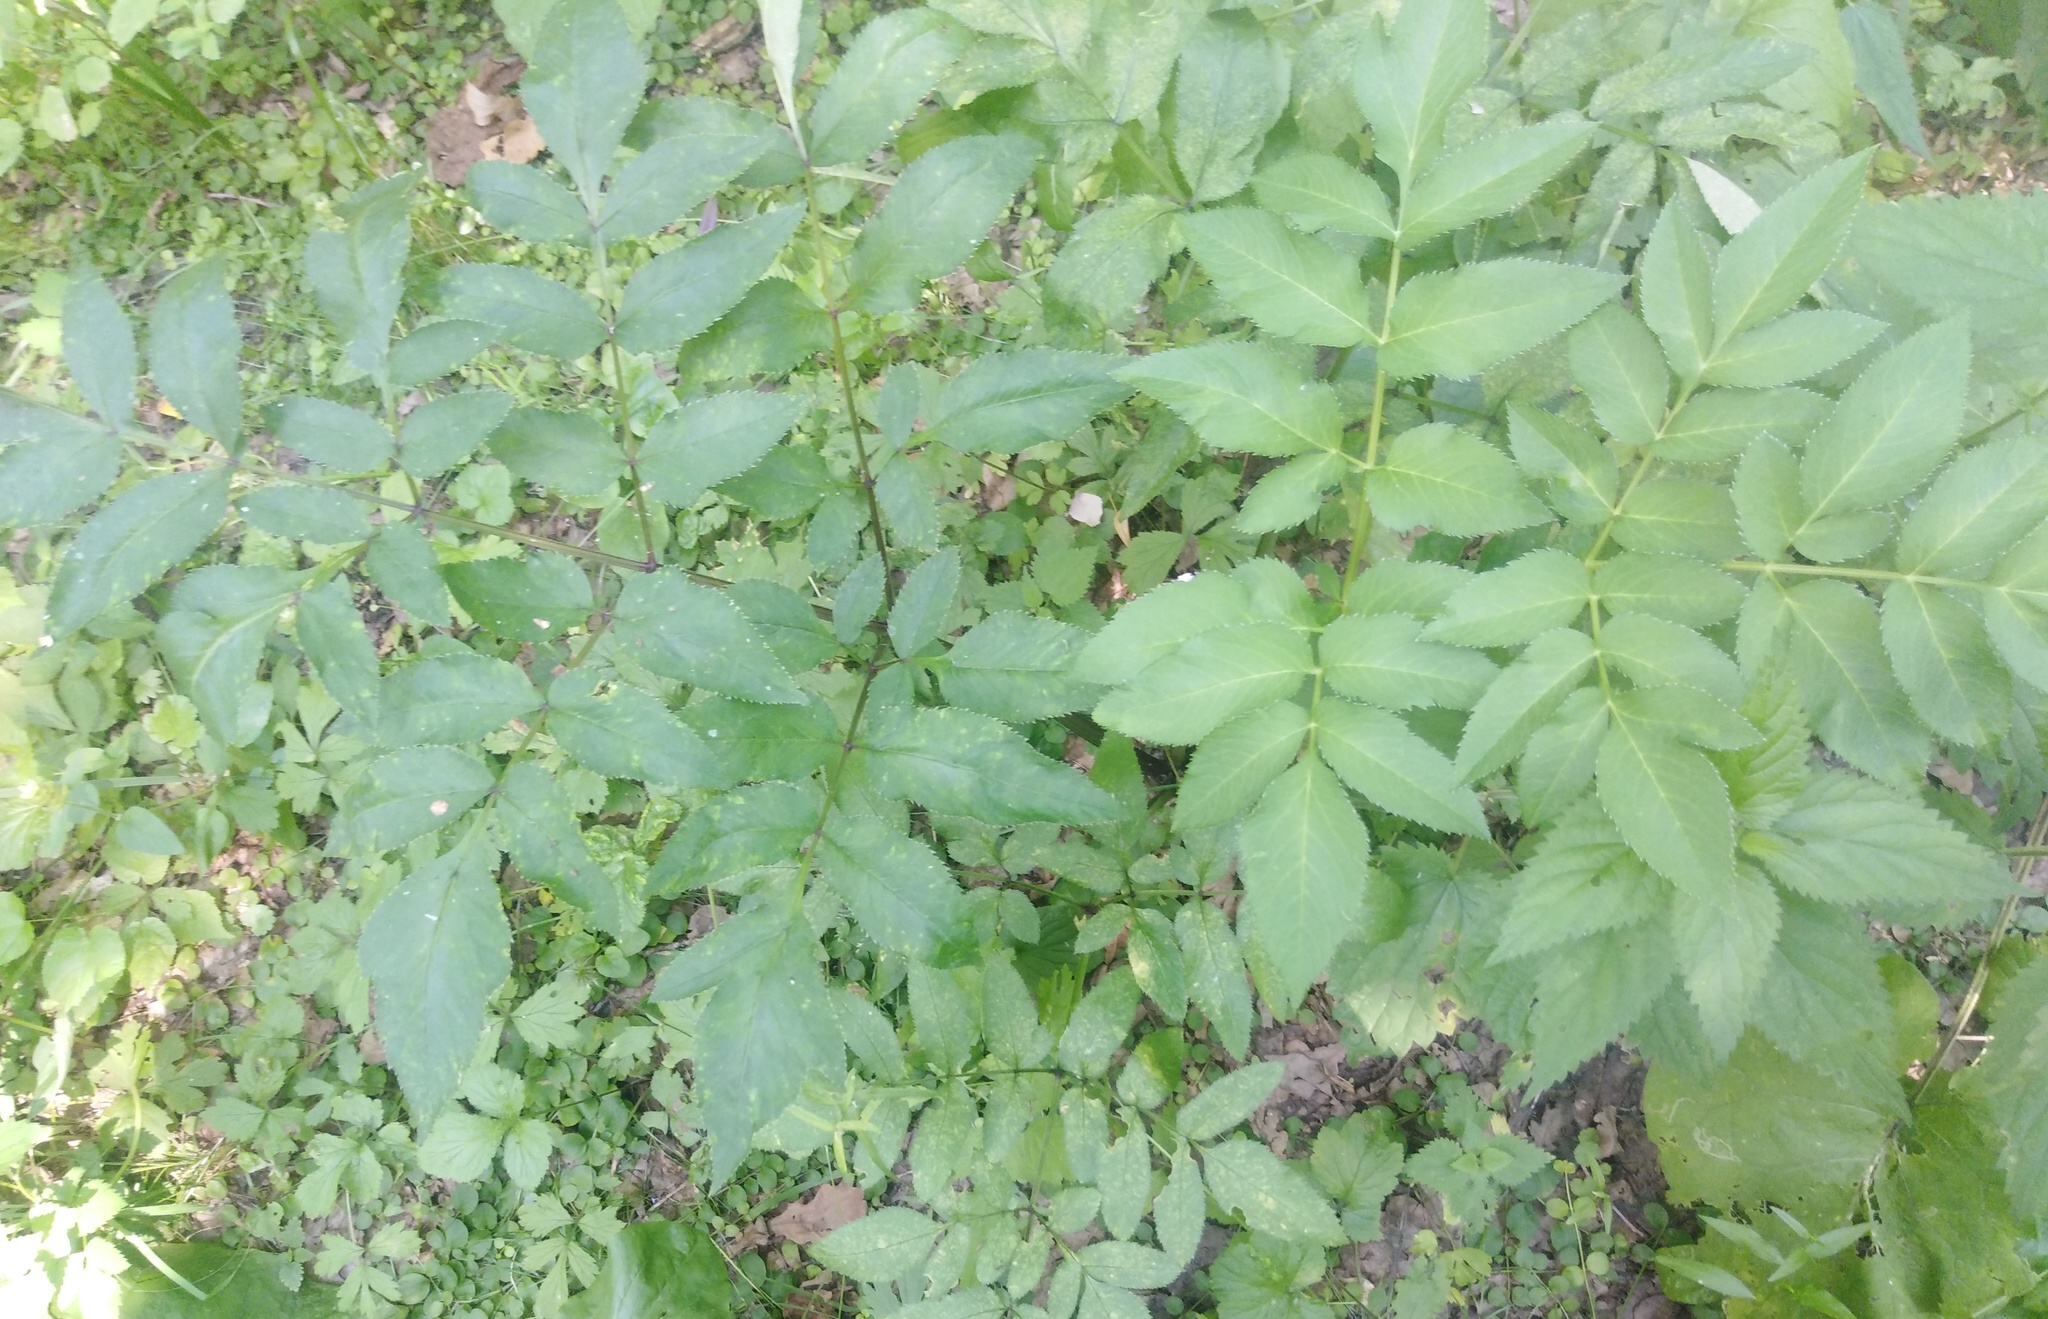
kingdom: Plantae
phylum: Tracheophyta
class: Magnoliopsida
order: Apiales
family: Apiaceae
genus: Angelica
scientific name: Angelica sylvestris
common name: Wild angelica
